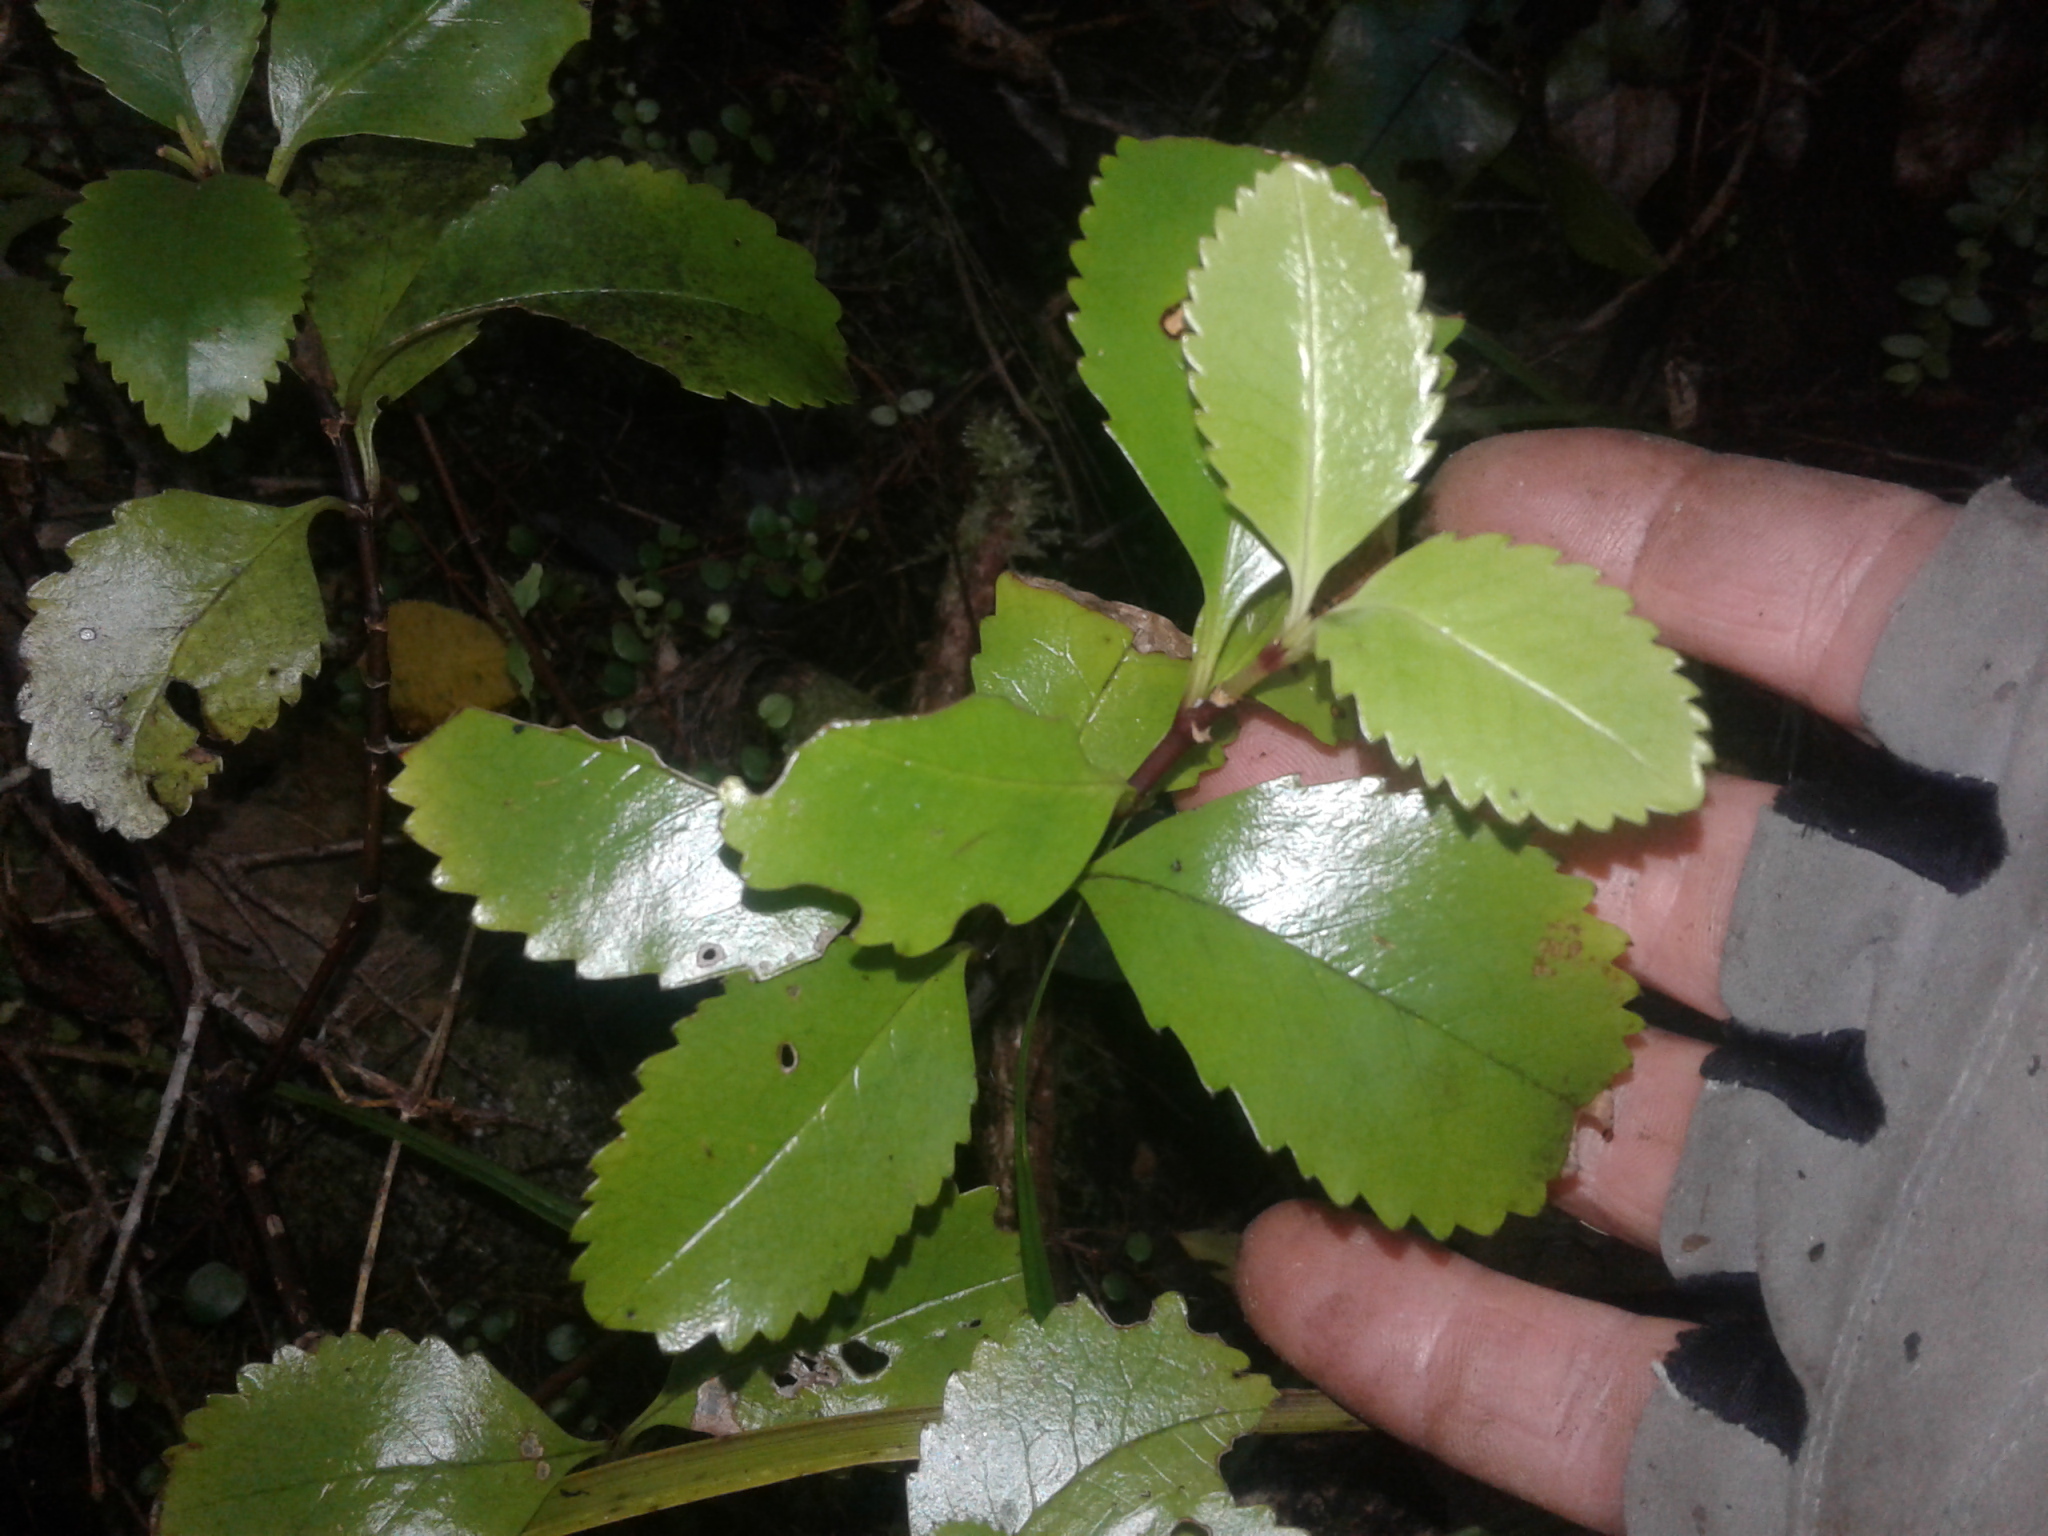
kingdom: Plantae
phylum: Tracheophyta
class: Magnoliopsida
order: Chloranthales
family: Chloranthaceae
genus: Ascarina
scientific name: Ascarina lucida
